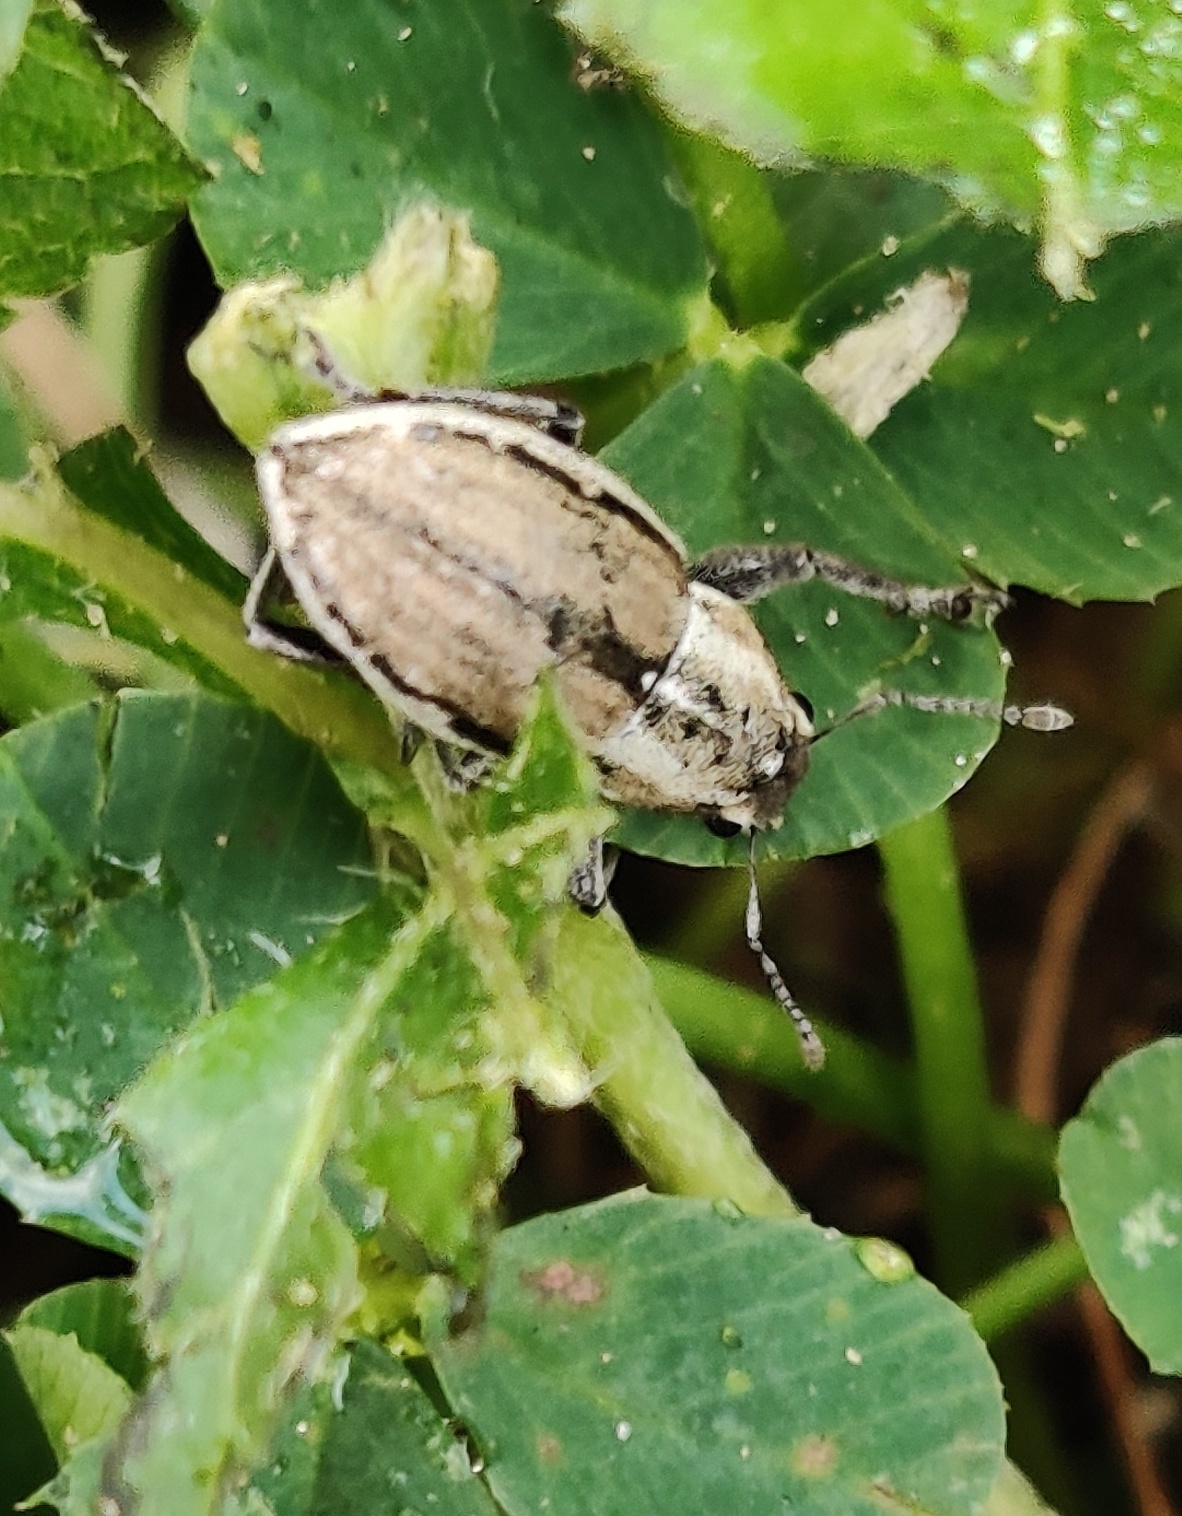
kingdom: Animalia
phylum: Arthropoda
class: Insecta
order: Coleoptera
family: Curculionidae
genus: Naupactus
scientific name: Naupactus peregrinus
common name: Whitefringed beetle
